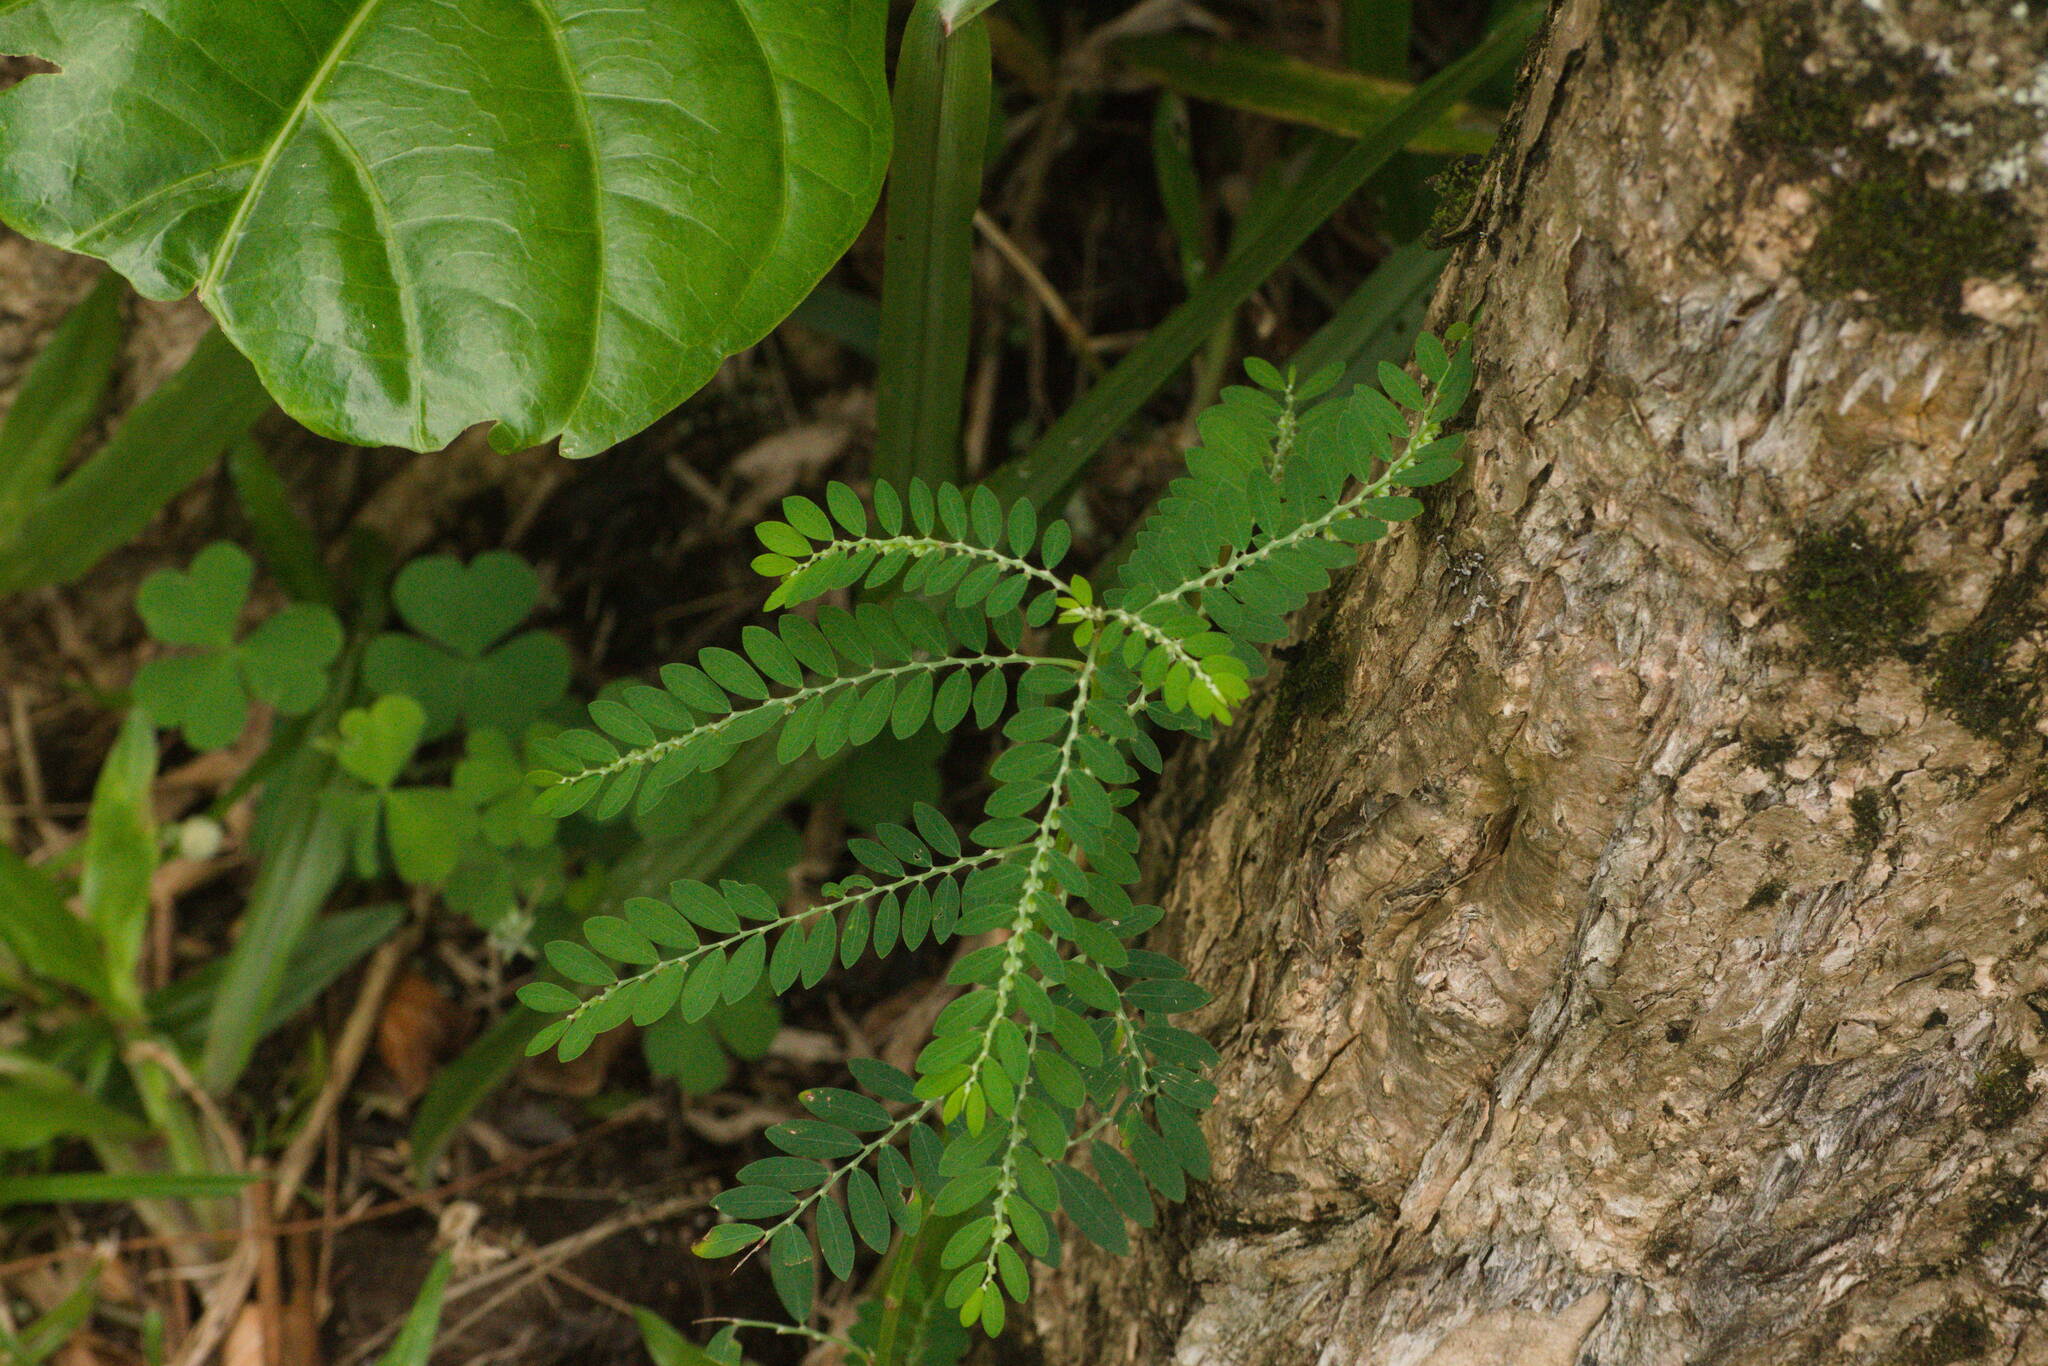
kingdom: Plantae
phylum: Tracheophyta
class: Magnoliopsida
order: Malpighiales
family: Phyllanthaceae
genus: Phyllanthus
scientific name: Phyllanthus debilis
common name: Niruri
